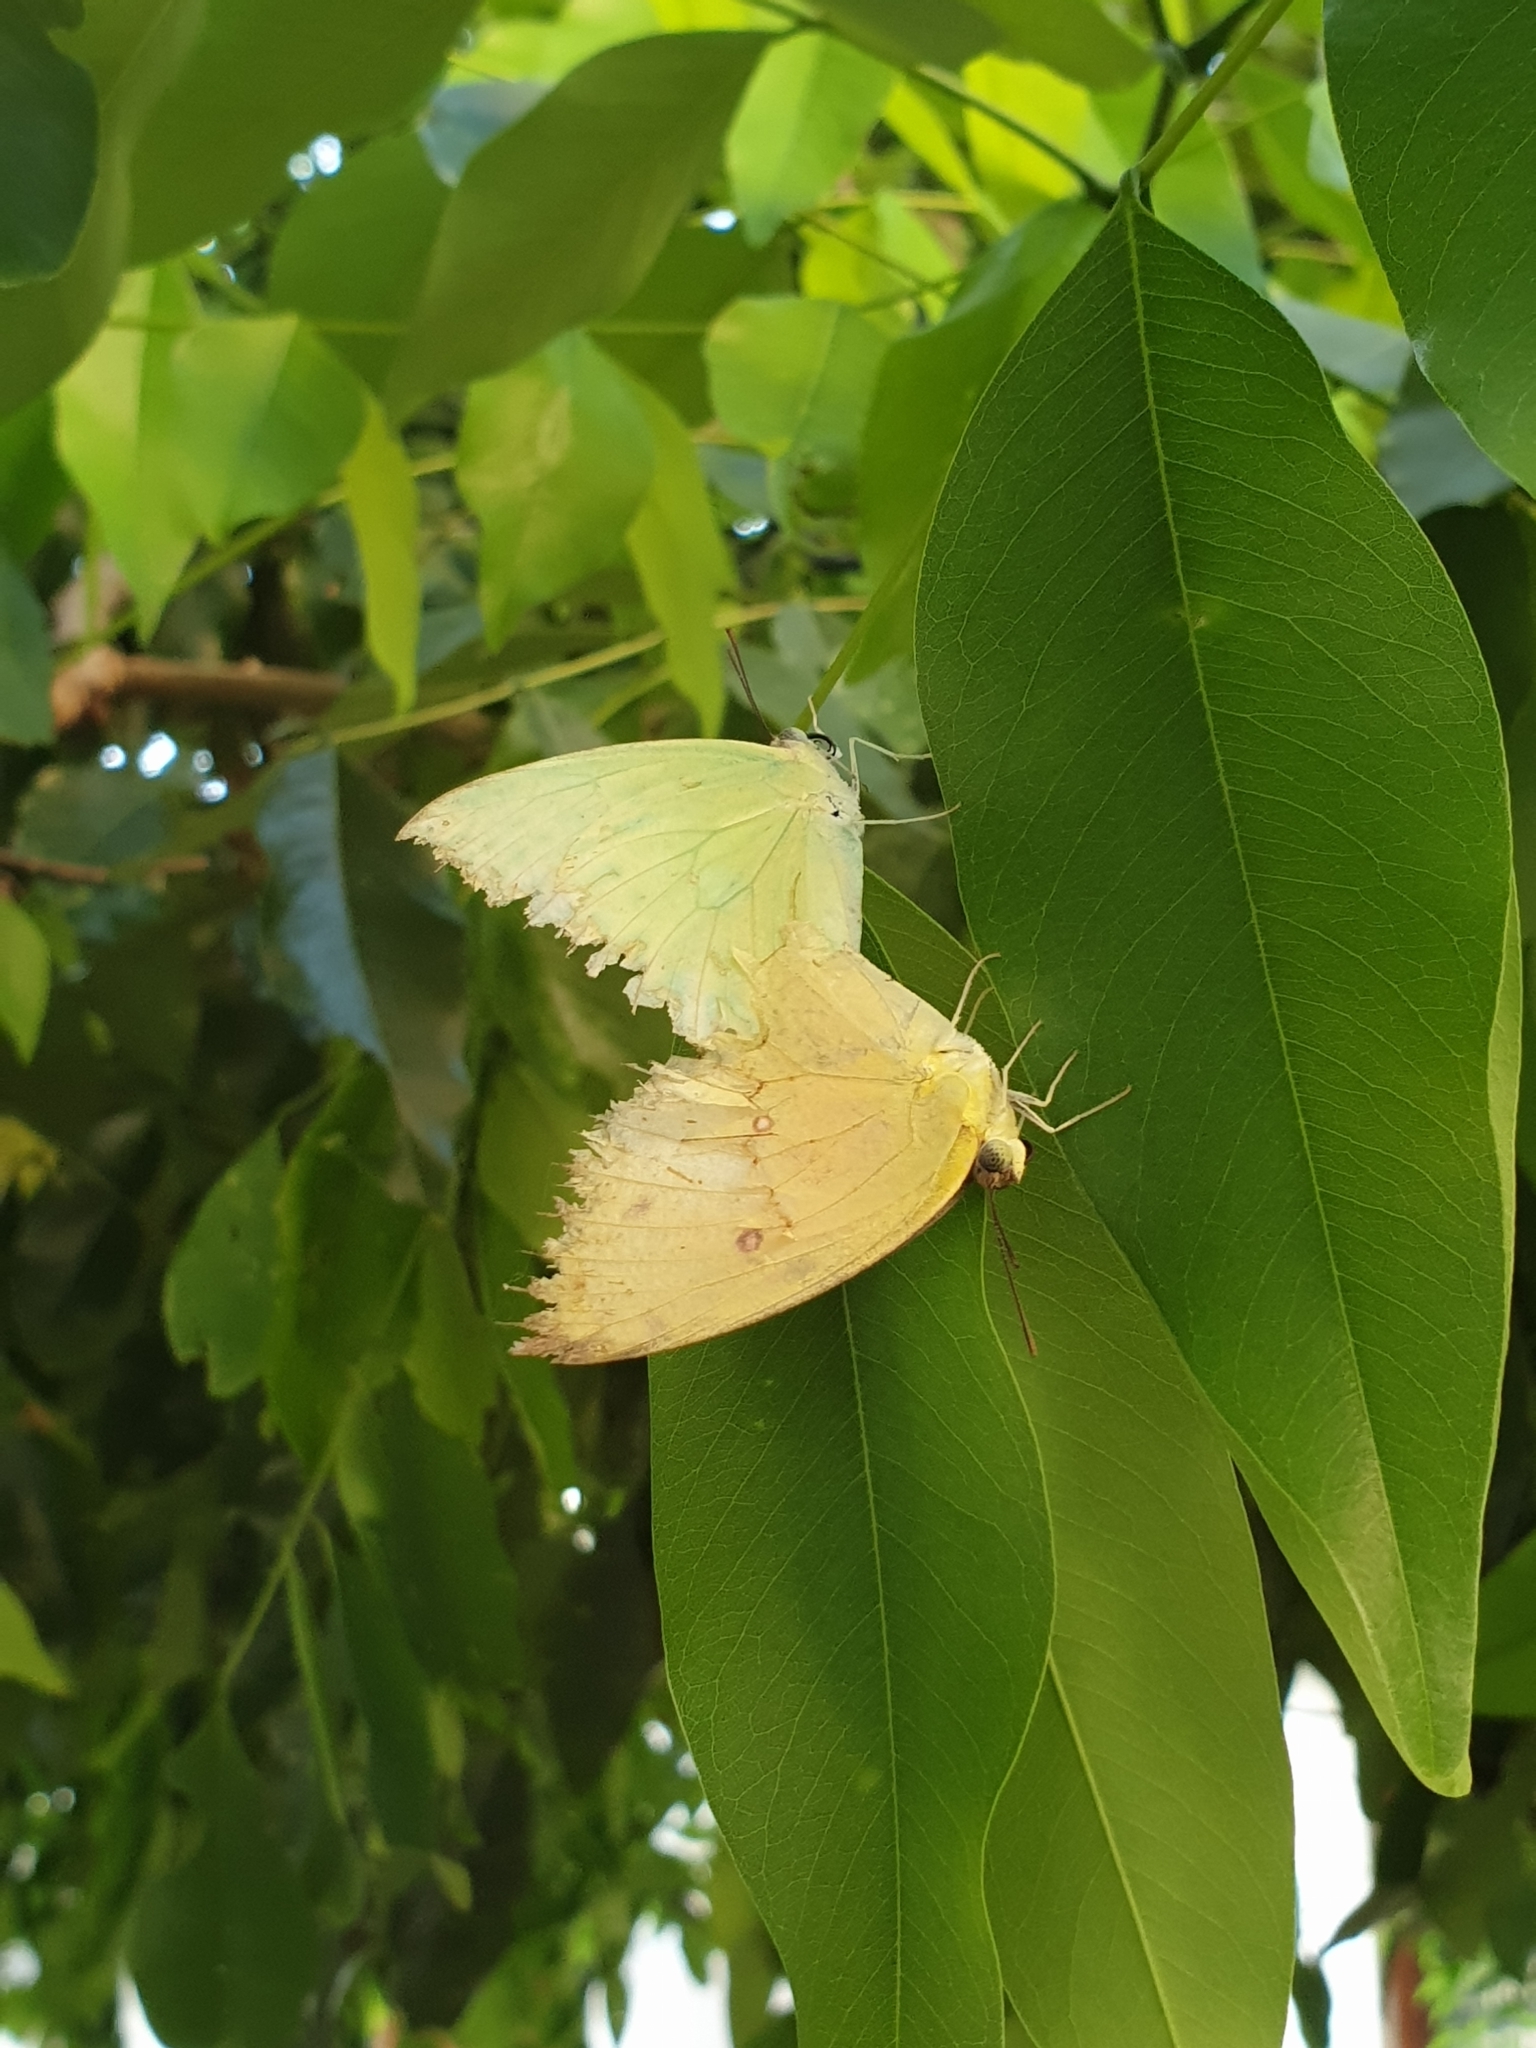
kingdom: Animalia
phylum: Arthropoda
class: Insecta
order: Lepidoptera
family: Pieridae
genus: Catopsilia
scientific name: Catopsilia pomona
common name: Common emigrant
